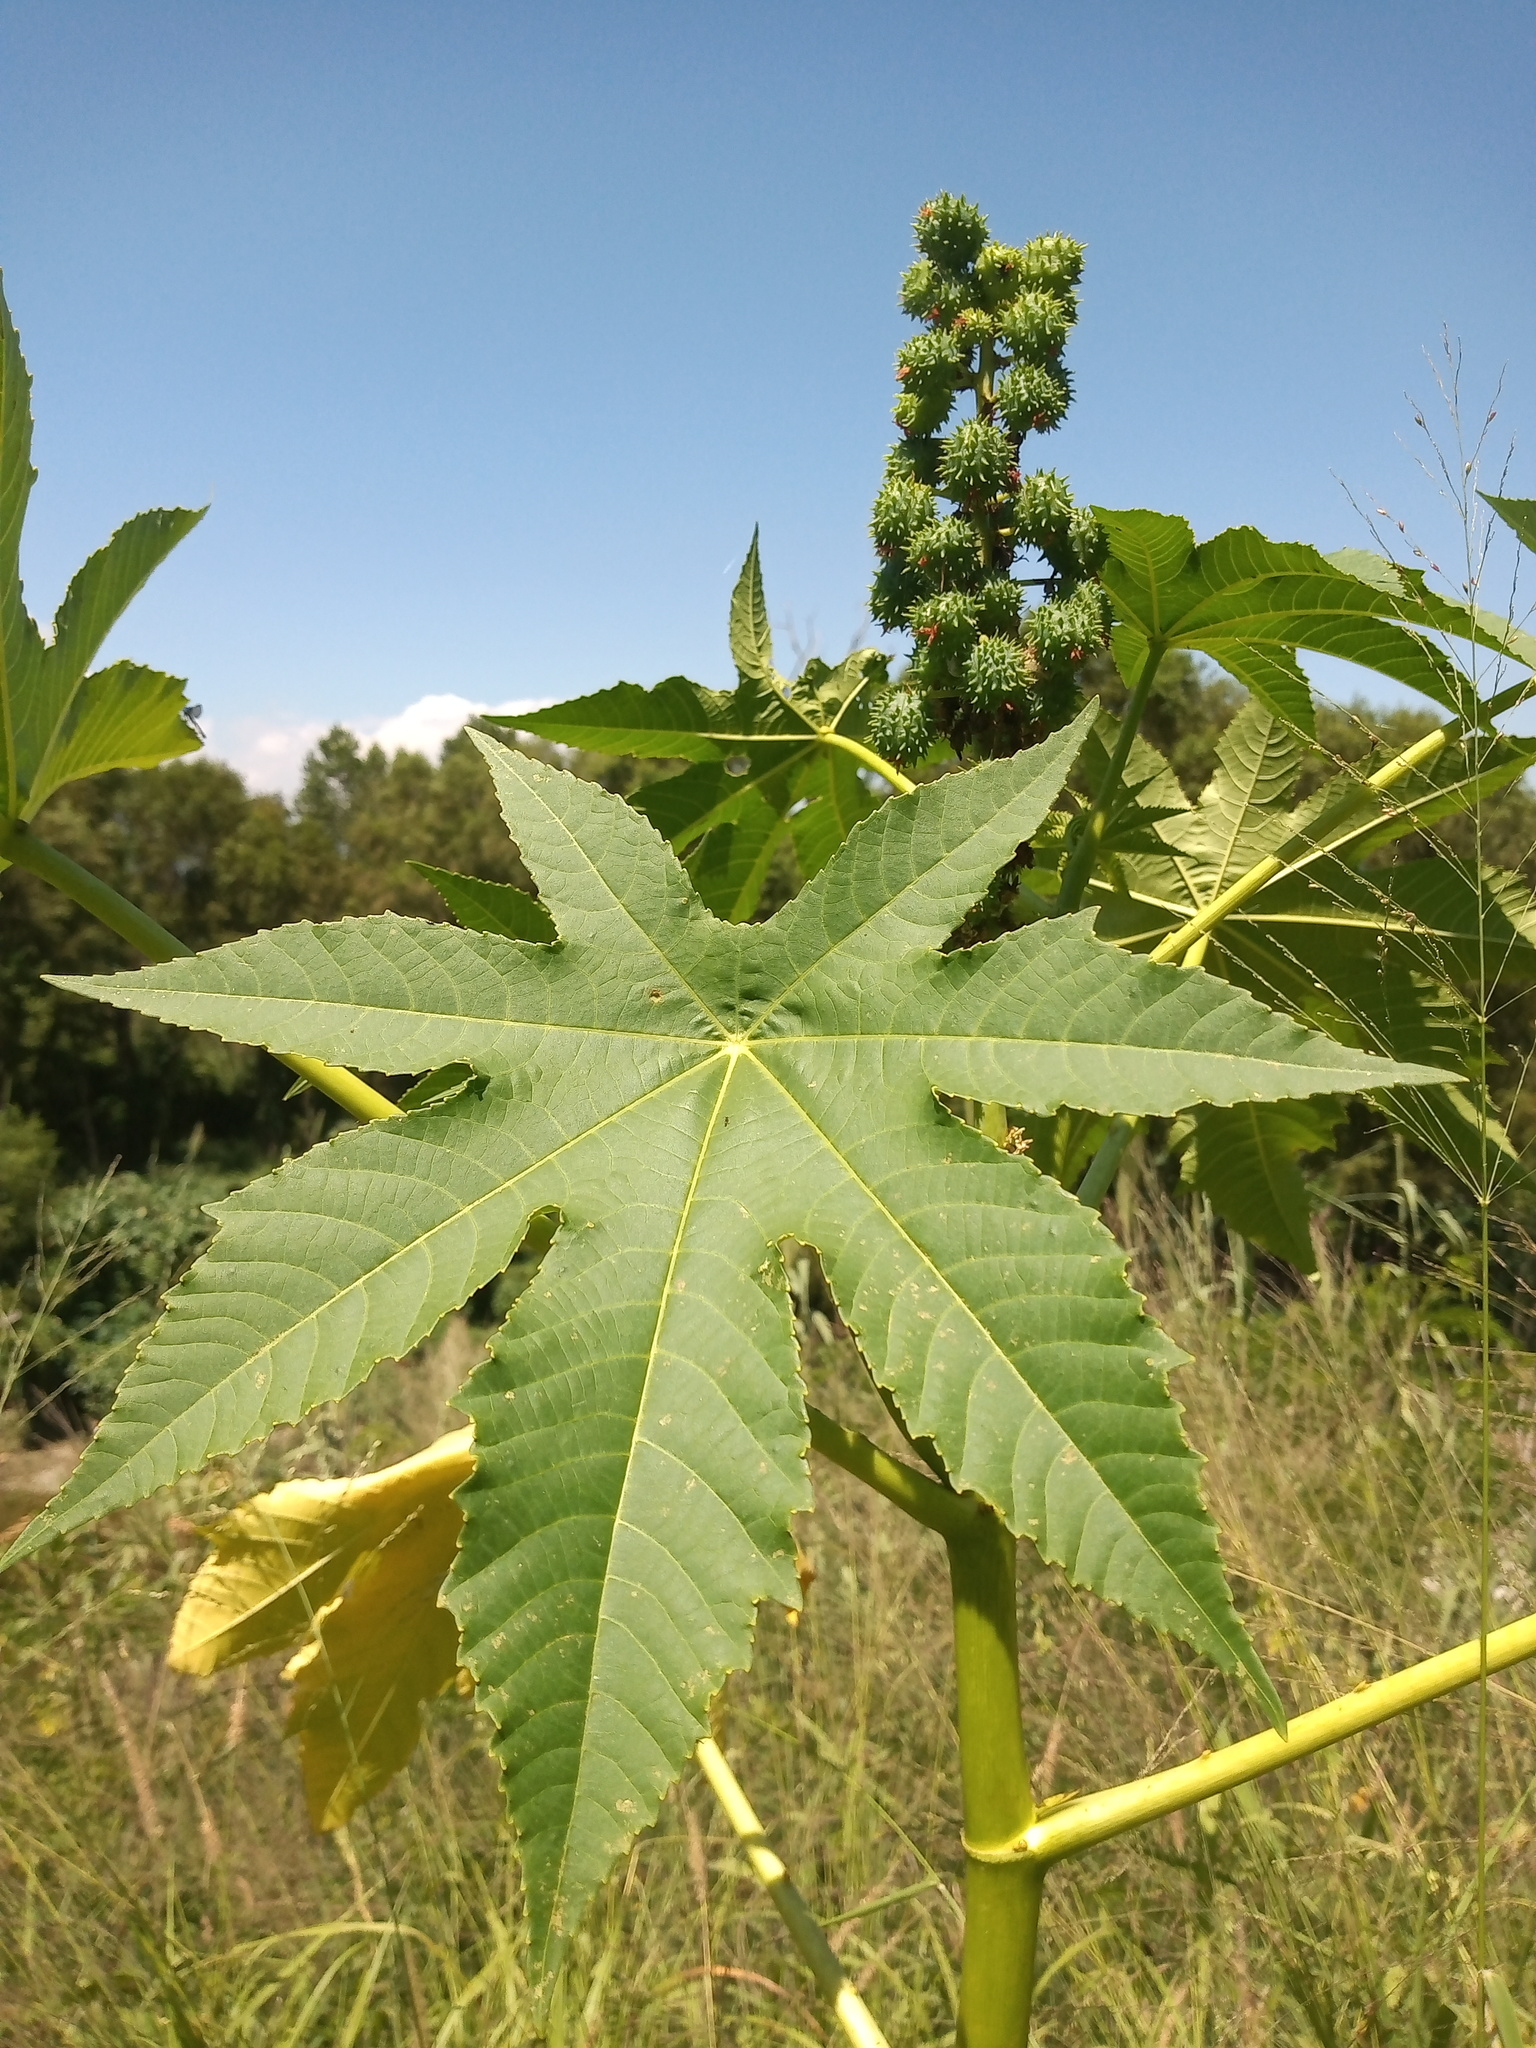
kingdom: Plantae
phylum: Tracheophyta
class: Magnoliopsida
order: Malpighiales
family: Euphorbiaceae
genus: Ricinus
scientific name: Ricinus communis
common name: Castor-oil-plant
